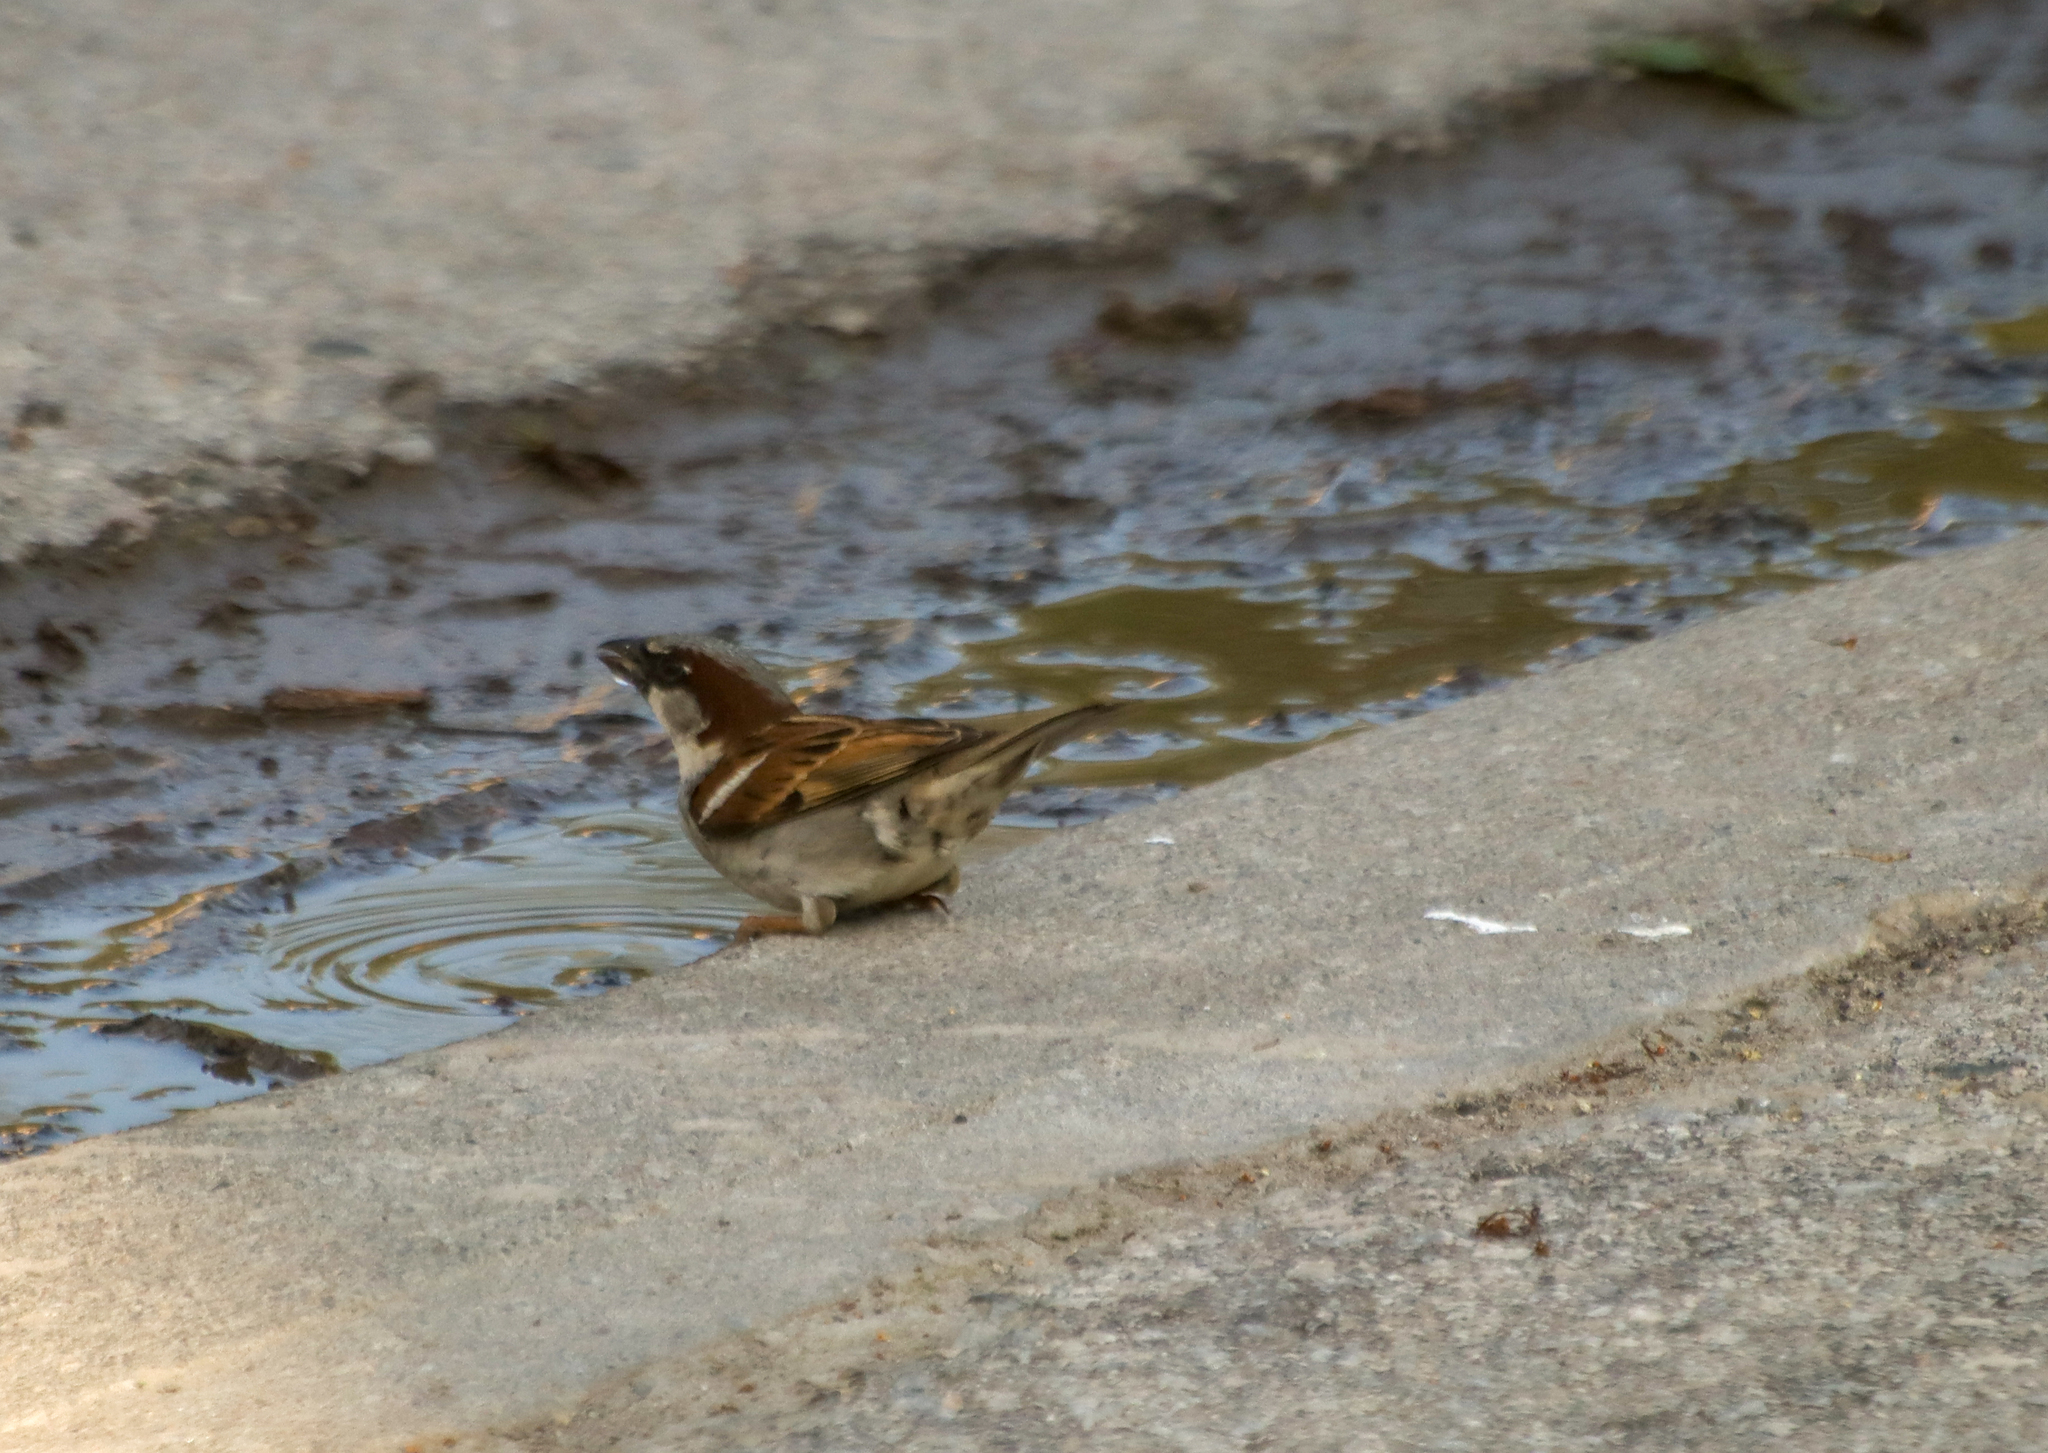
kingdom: Animalia
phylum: Chordata
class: Aves
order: Passeriformes
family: Passeridae
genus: Passer
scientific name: Passer domesticus
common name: House sparrow
